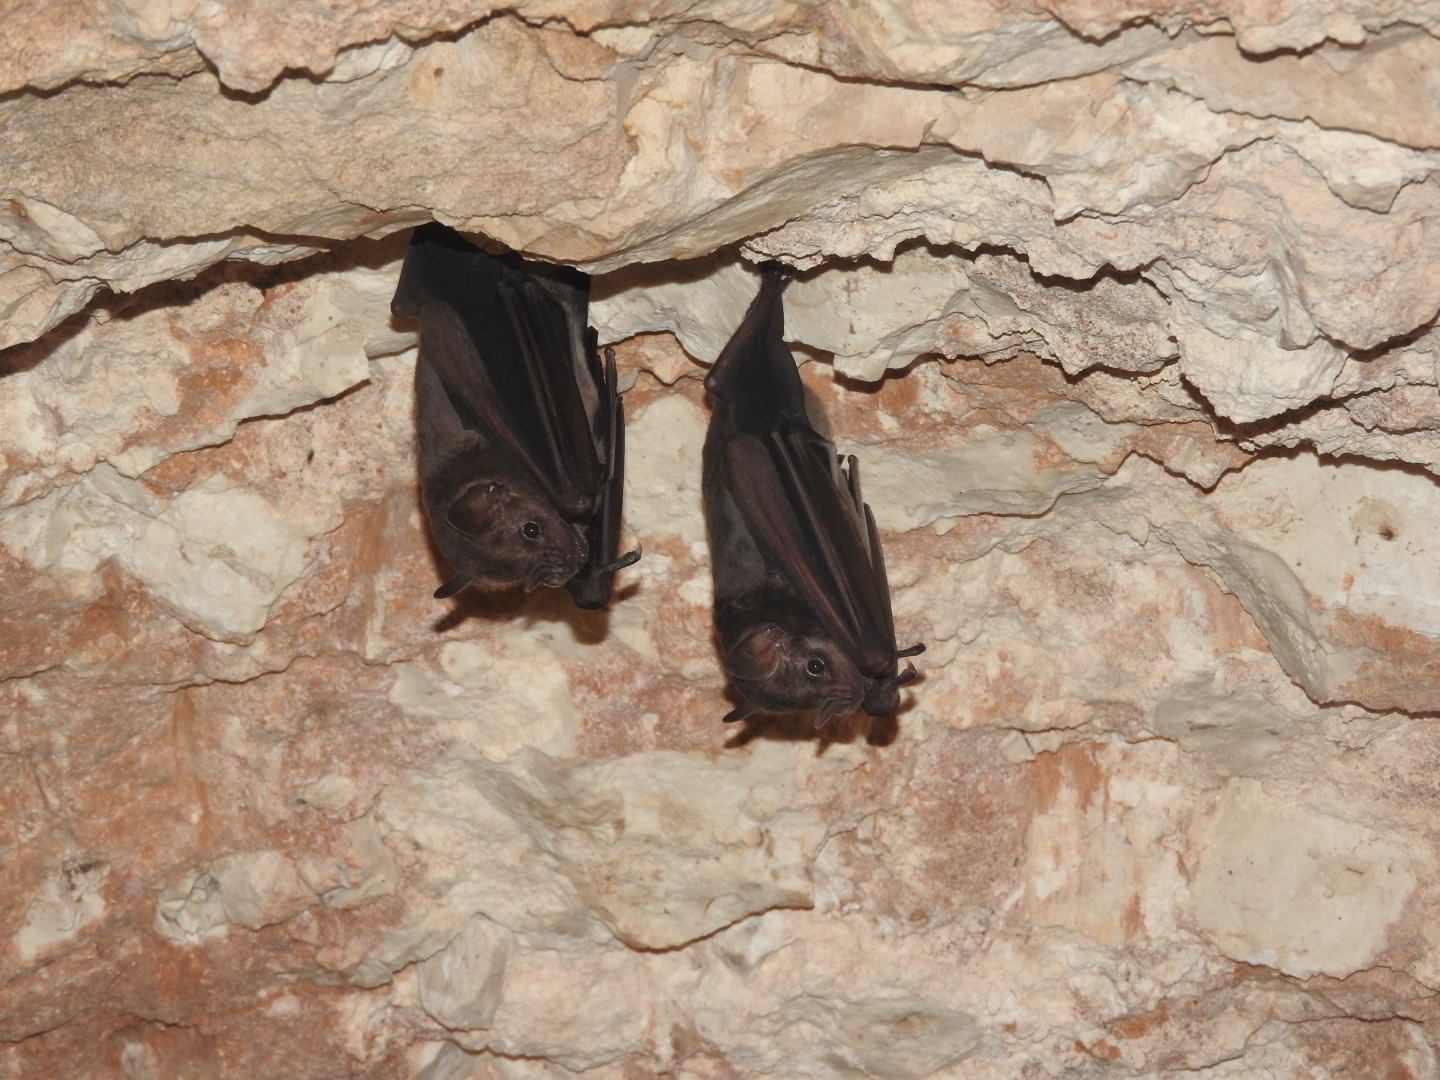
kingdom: Animalia
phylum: Chordata
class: Mammalia
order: Chiroptera
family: Phyllostomidae
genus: Artibeus
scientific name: Artibeus jamaicensis
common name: Jamaican fruit-eating bat
